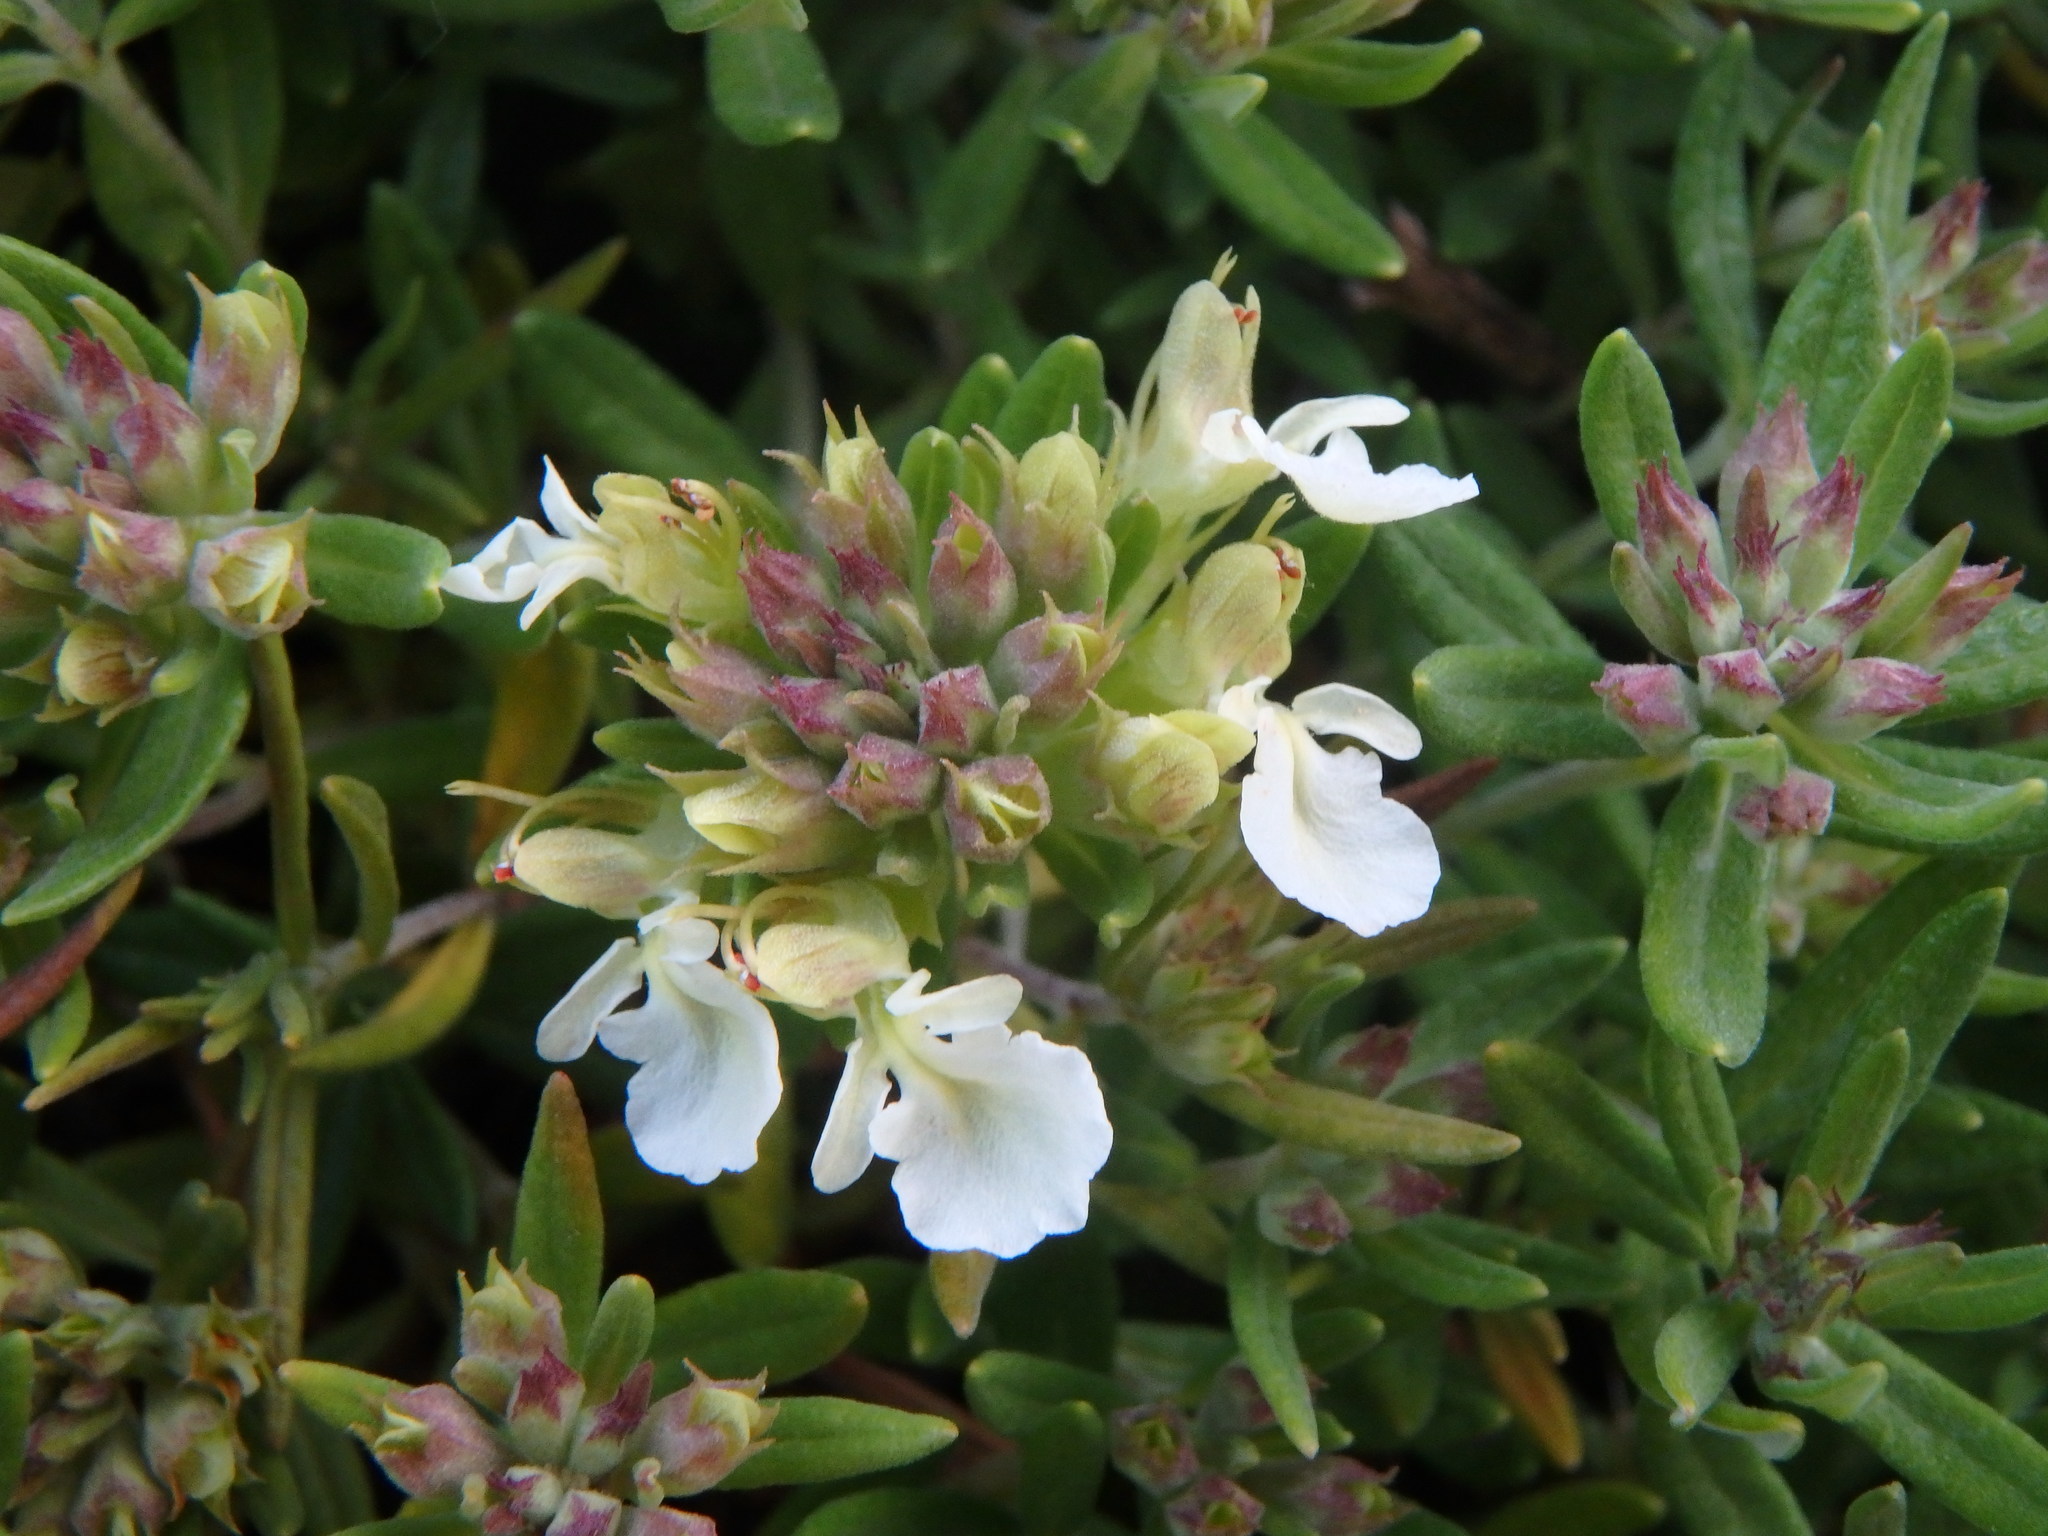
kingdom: Plantae
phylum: Tracheophyta
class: Magnoliopsida
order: Lamiales
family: Lamiaceae
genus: Teucrium
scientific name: Teucrium montanum
